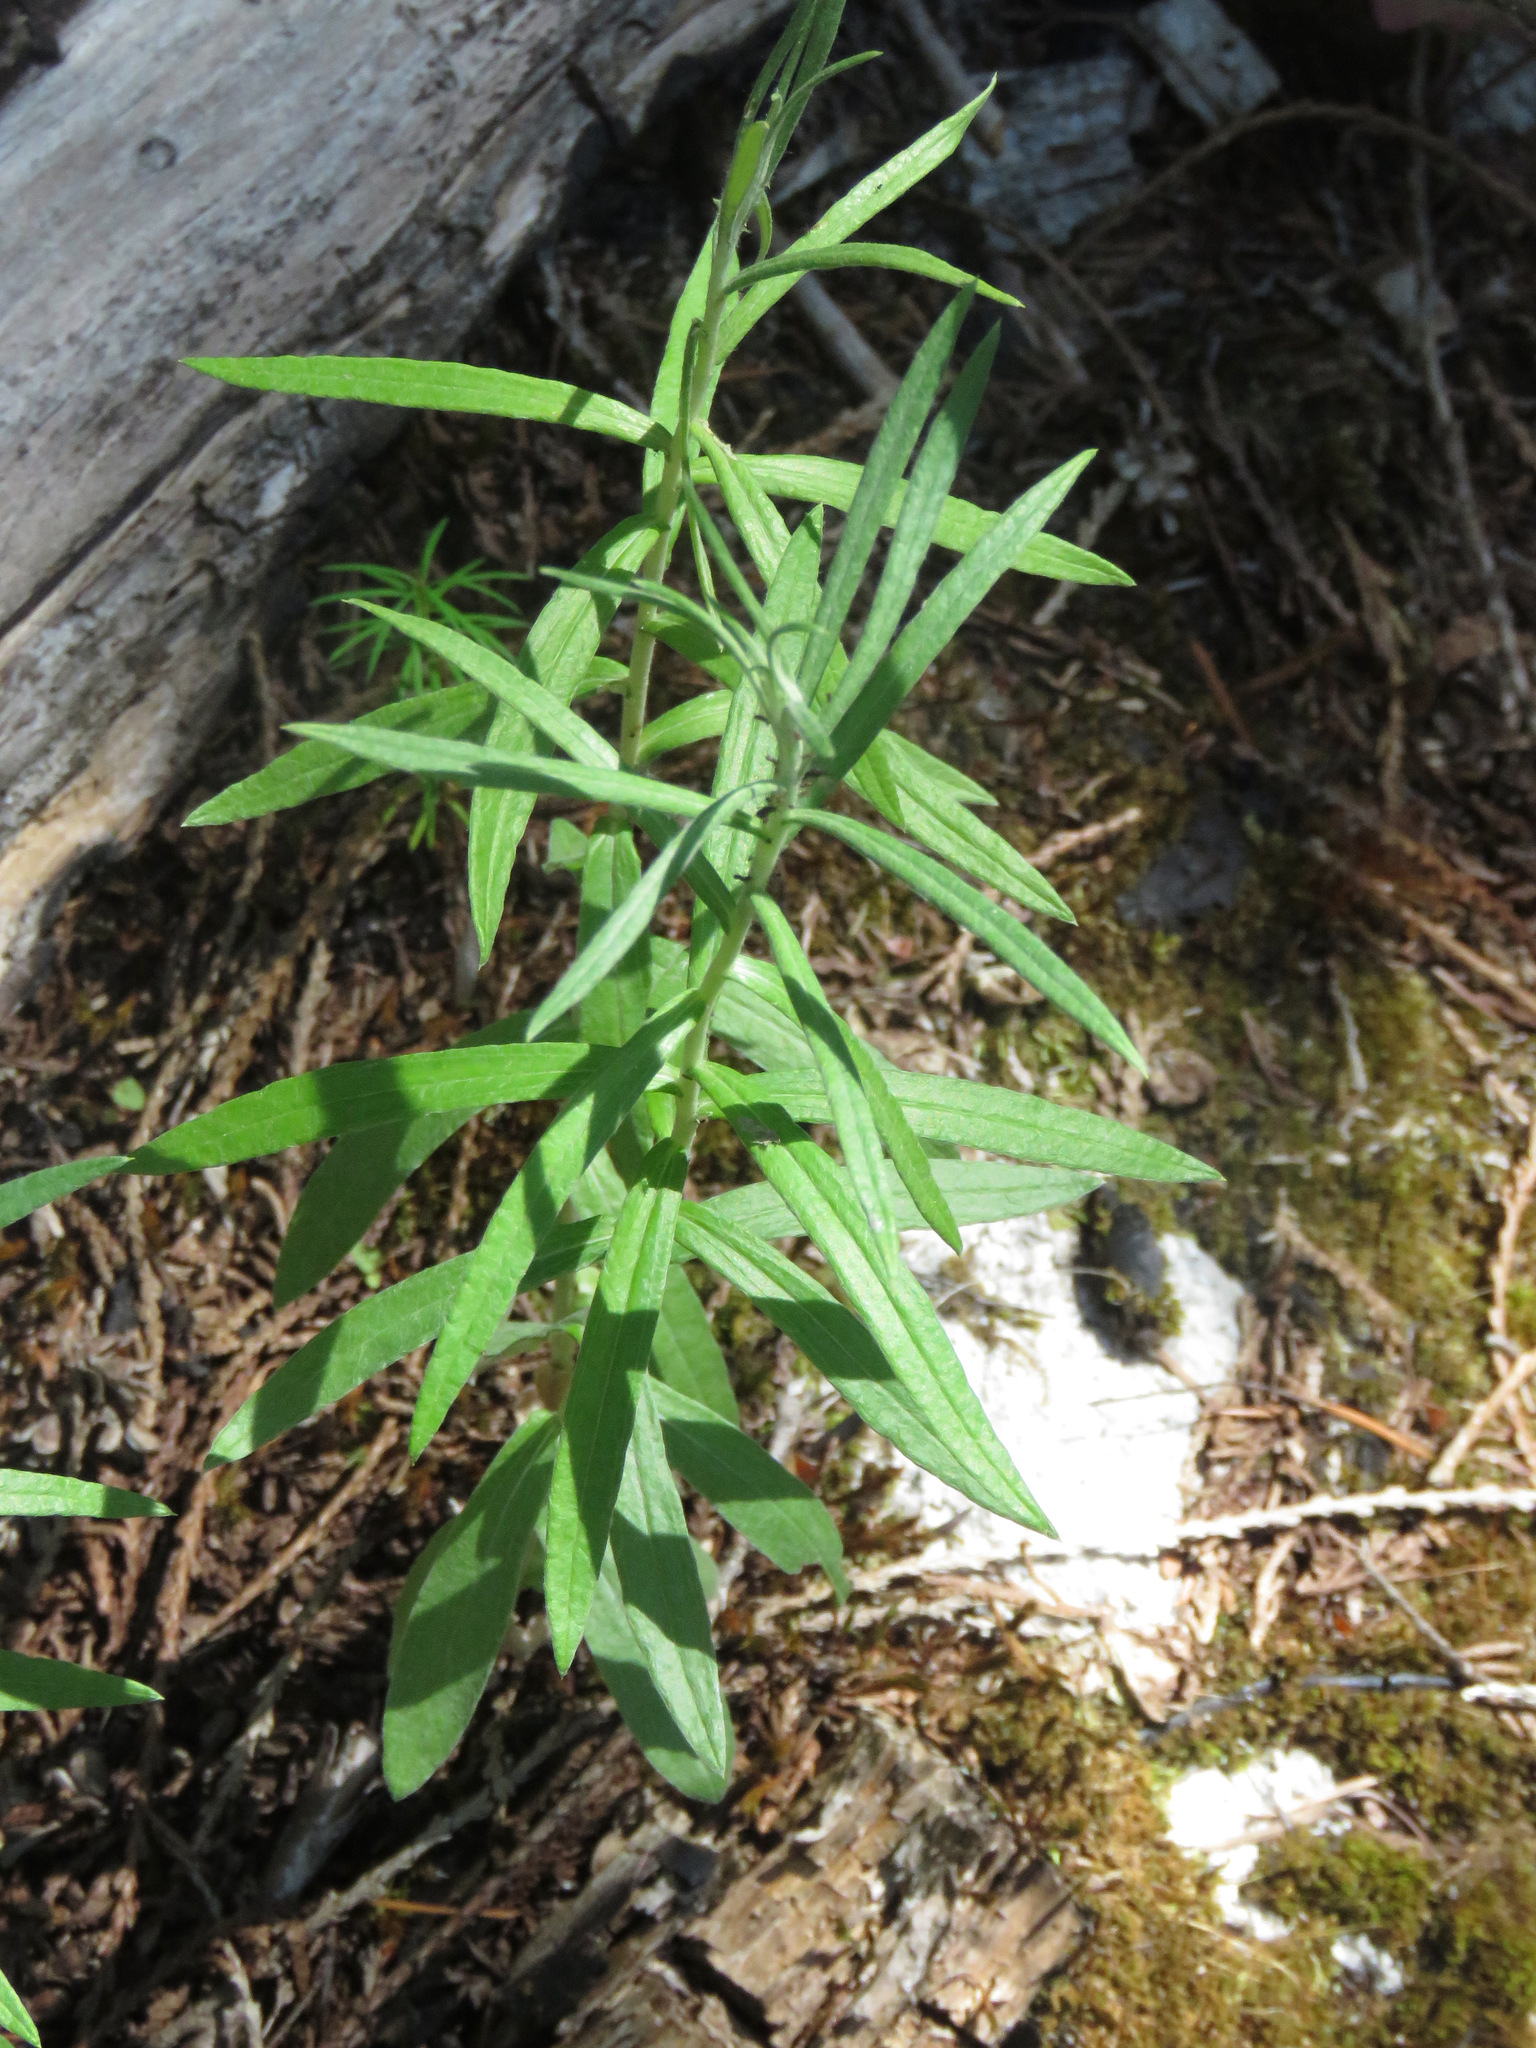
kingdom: Plantae
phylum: Tracheophyta
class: Magnoliopsida
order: Asterales
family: Asteraceae
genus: Anaphalis
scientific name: Anaphalis margaritacea
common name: Pearly everlasting
